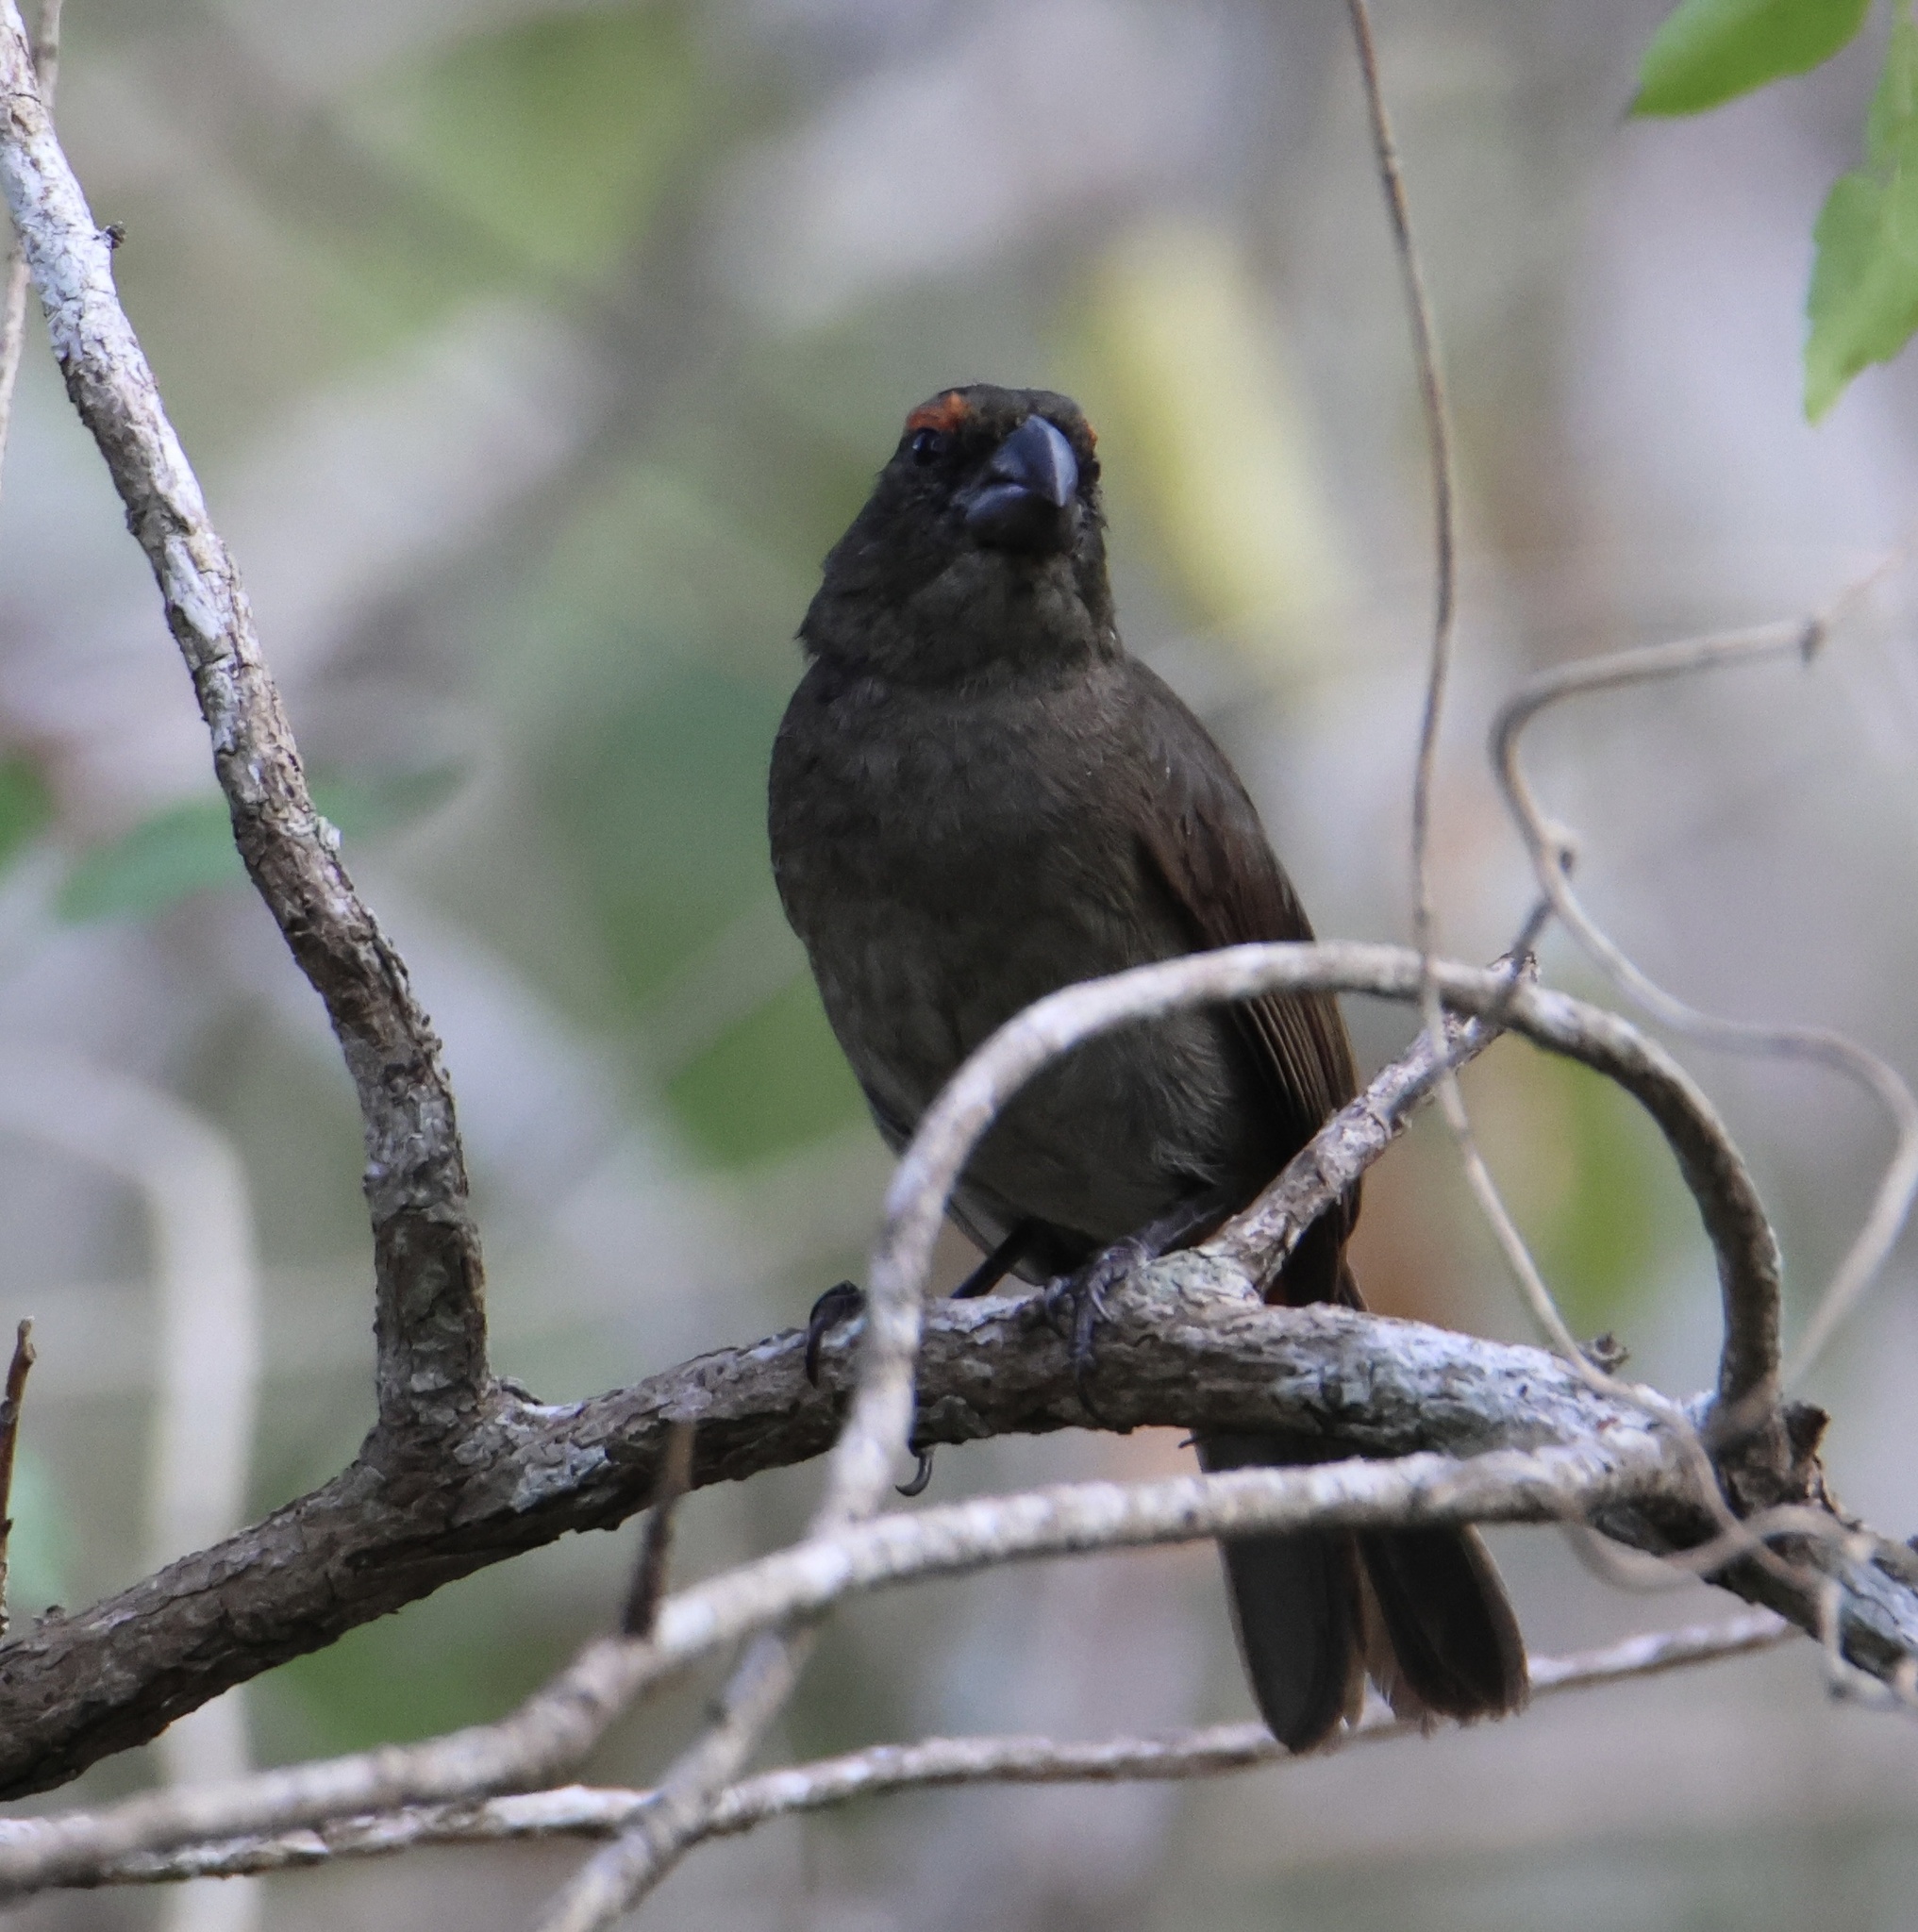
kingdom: Animalia
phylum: Chordata
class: Aves
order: Passeriformes
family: Thraupidae
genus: Melopyrrha
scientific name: Melopyrrha violacea
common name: Greater antillean bullfinch
